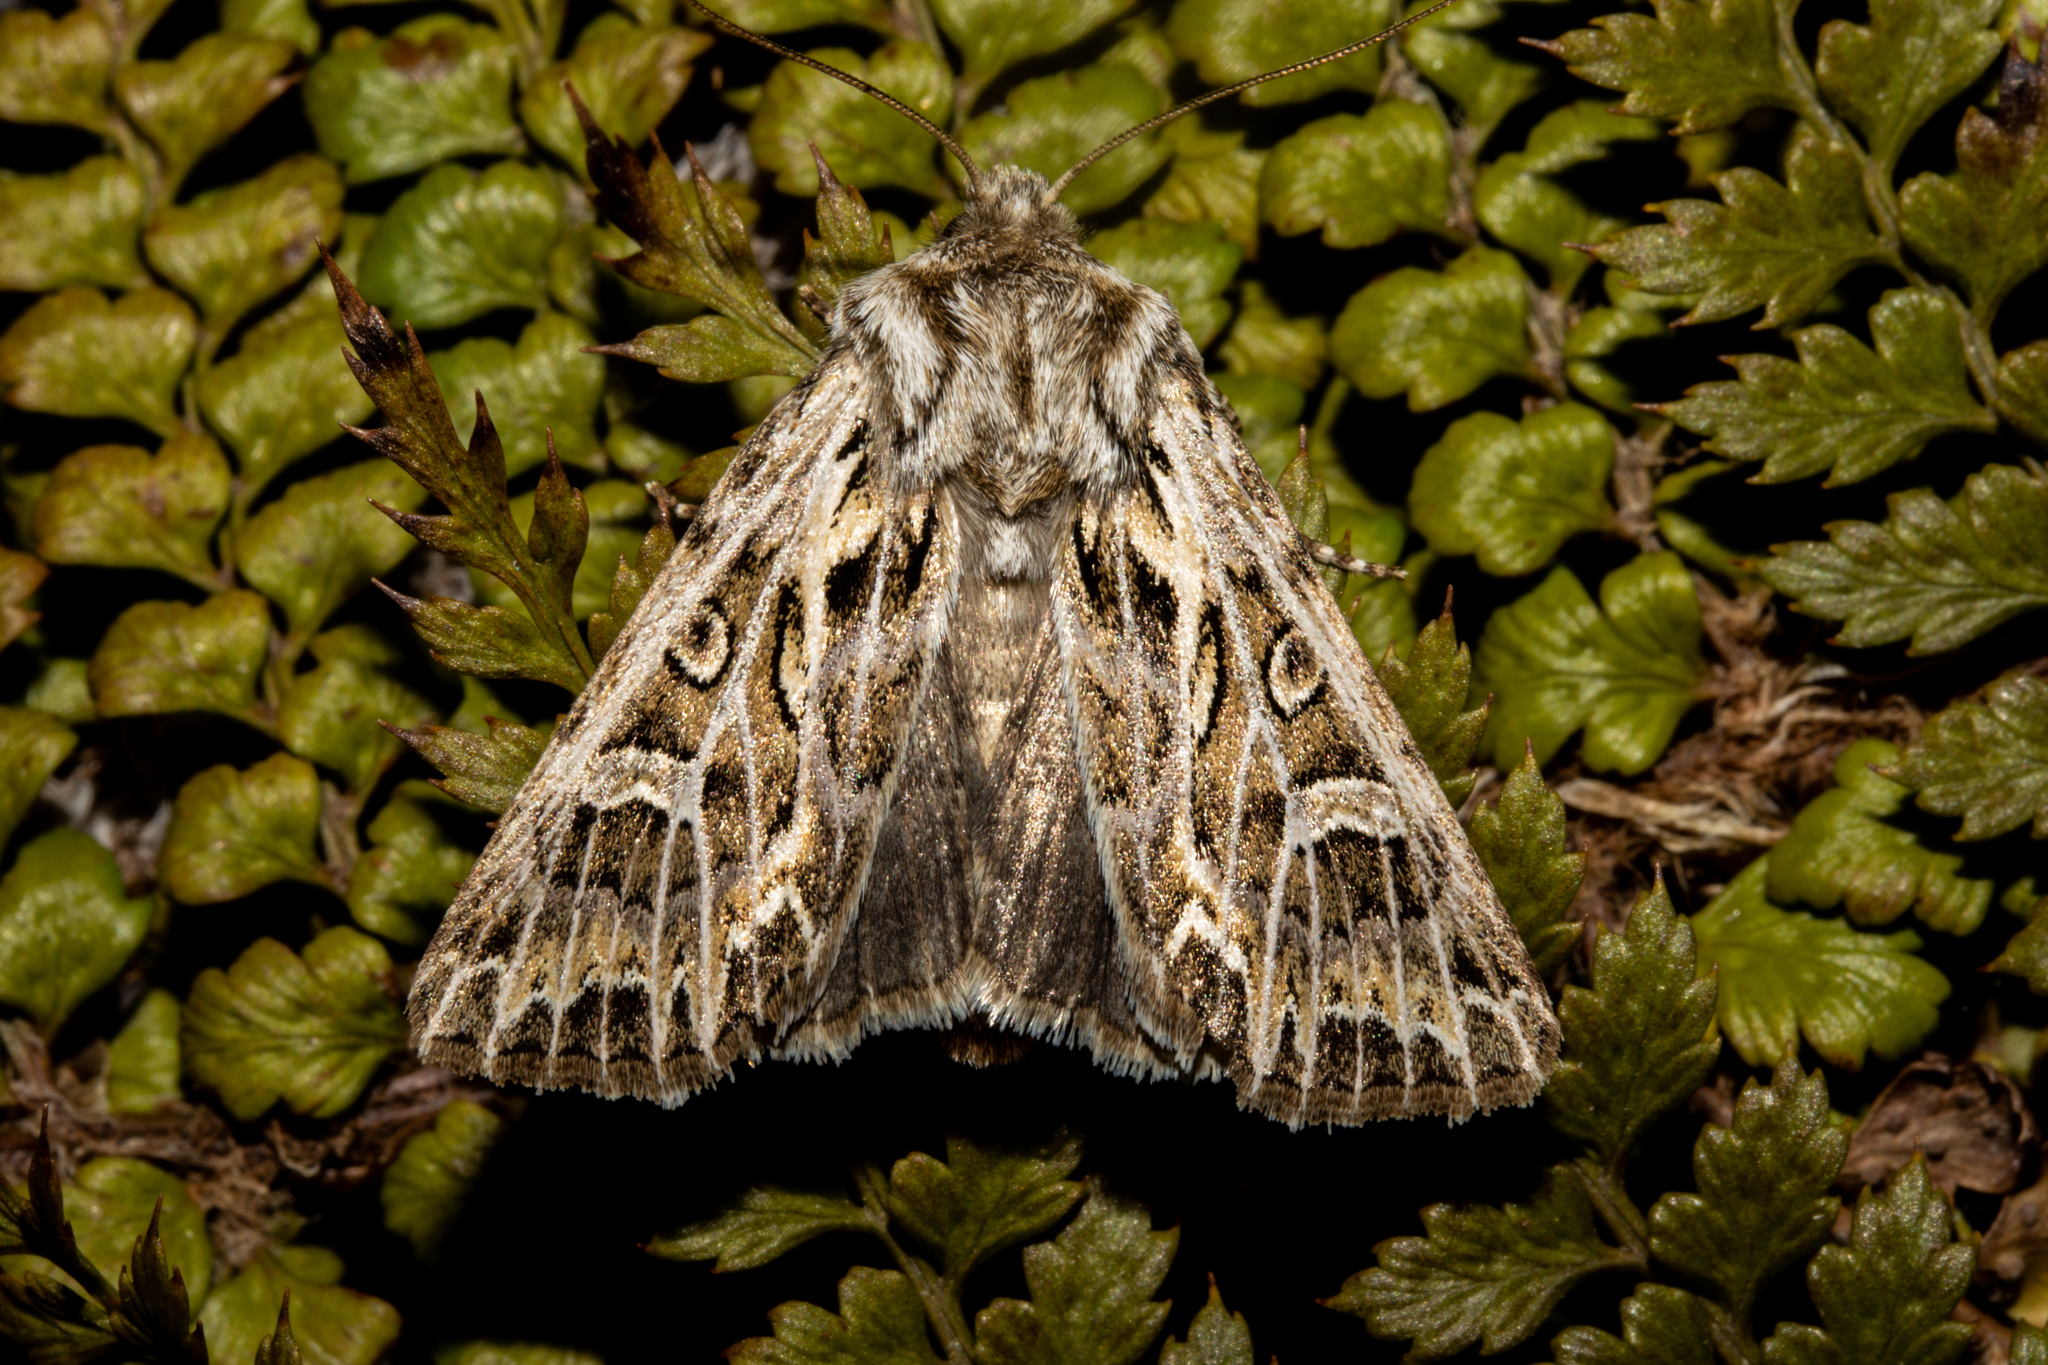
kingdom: Animalia
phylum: Arthropoda
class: Insecta
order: Lepidoptera
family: Noctuidae
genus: Ichneutica
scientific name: Ichneutica
